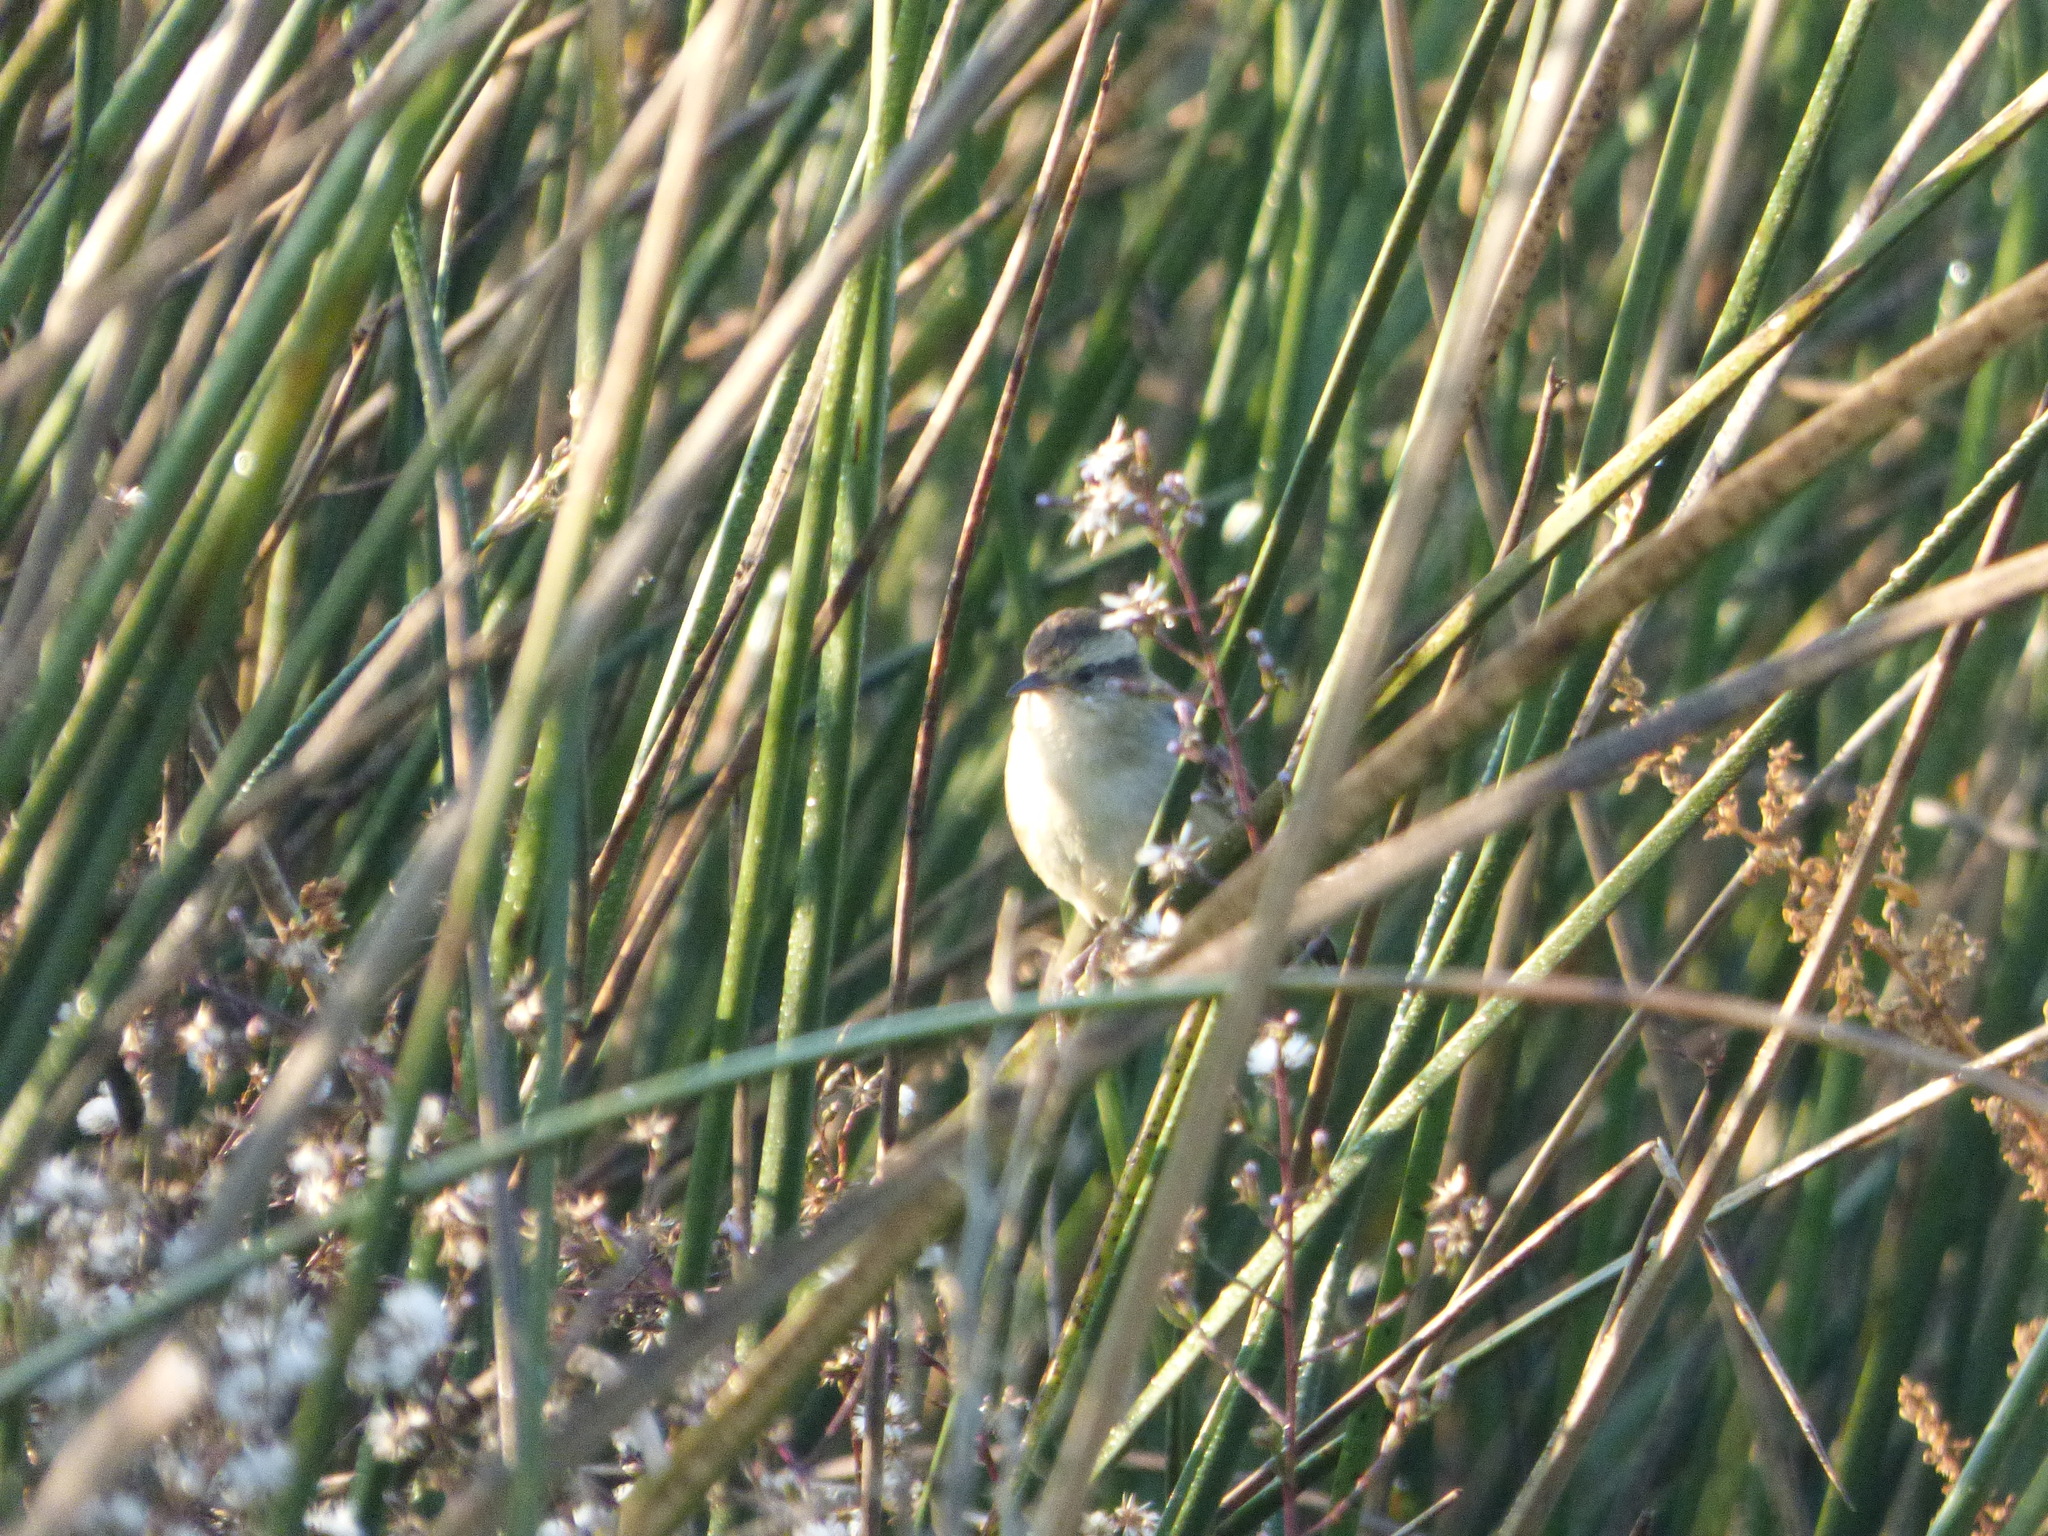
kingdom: Animalia
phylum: Chordata
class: Aves
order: Passeriformes
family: Furnariidae
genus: Phleocryptes
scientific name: Phleocryptes melanops
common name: Wren-like rushbird
